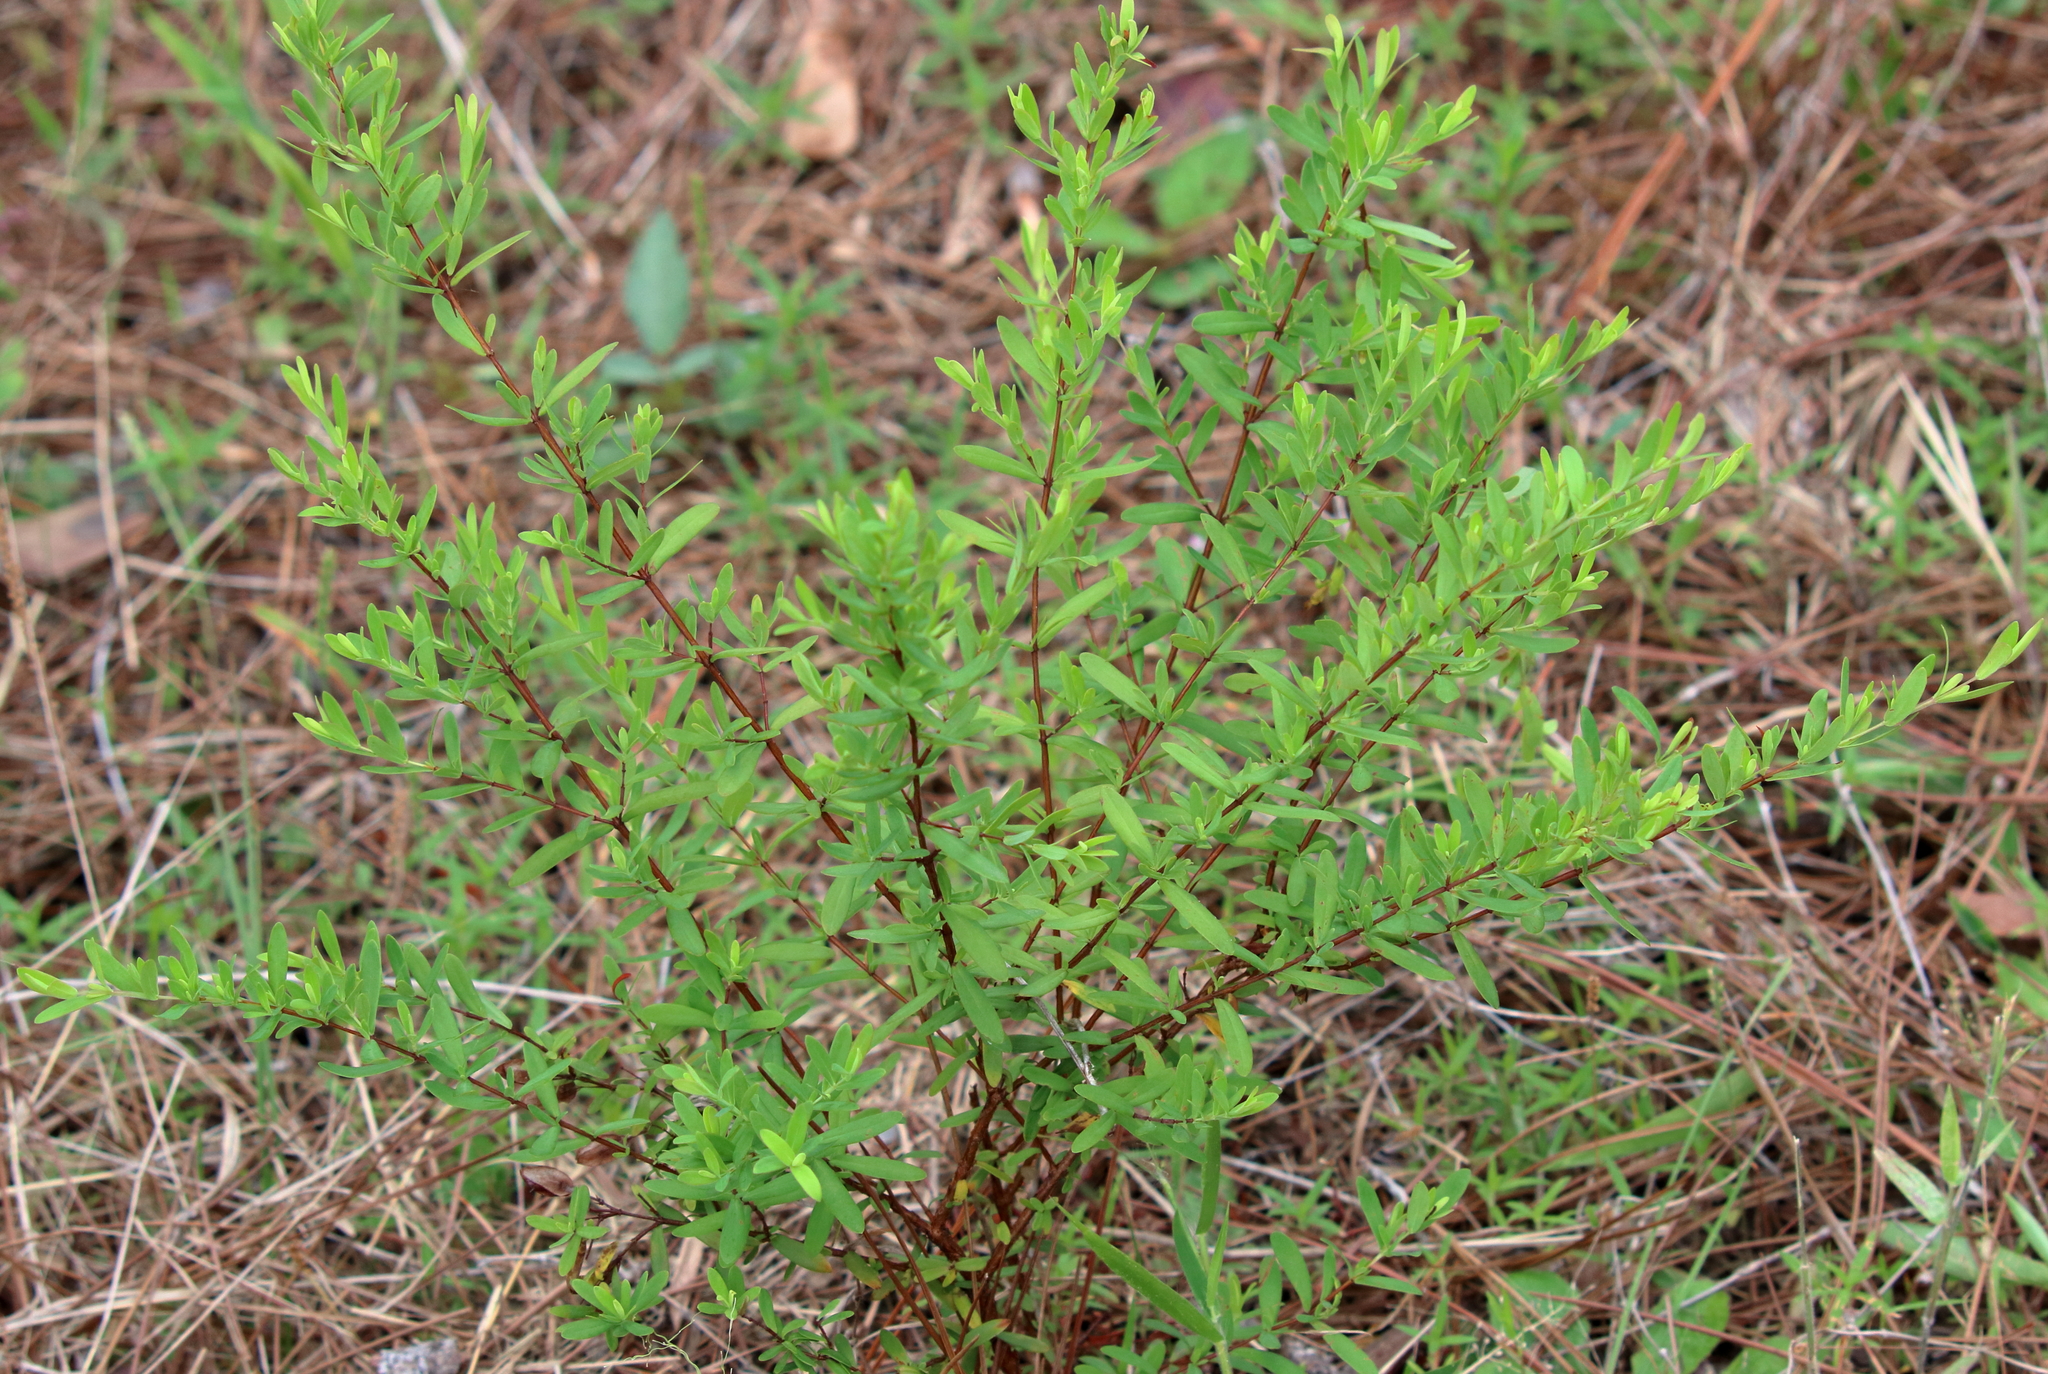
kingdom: Plantae
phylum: Tracheophyta
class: Magnoliopsida
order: Malpighiales
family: Hypericaceae
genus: Hypericum
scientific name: Hypericum hypericoides
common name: St. andrew's cross
